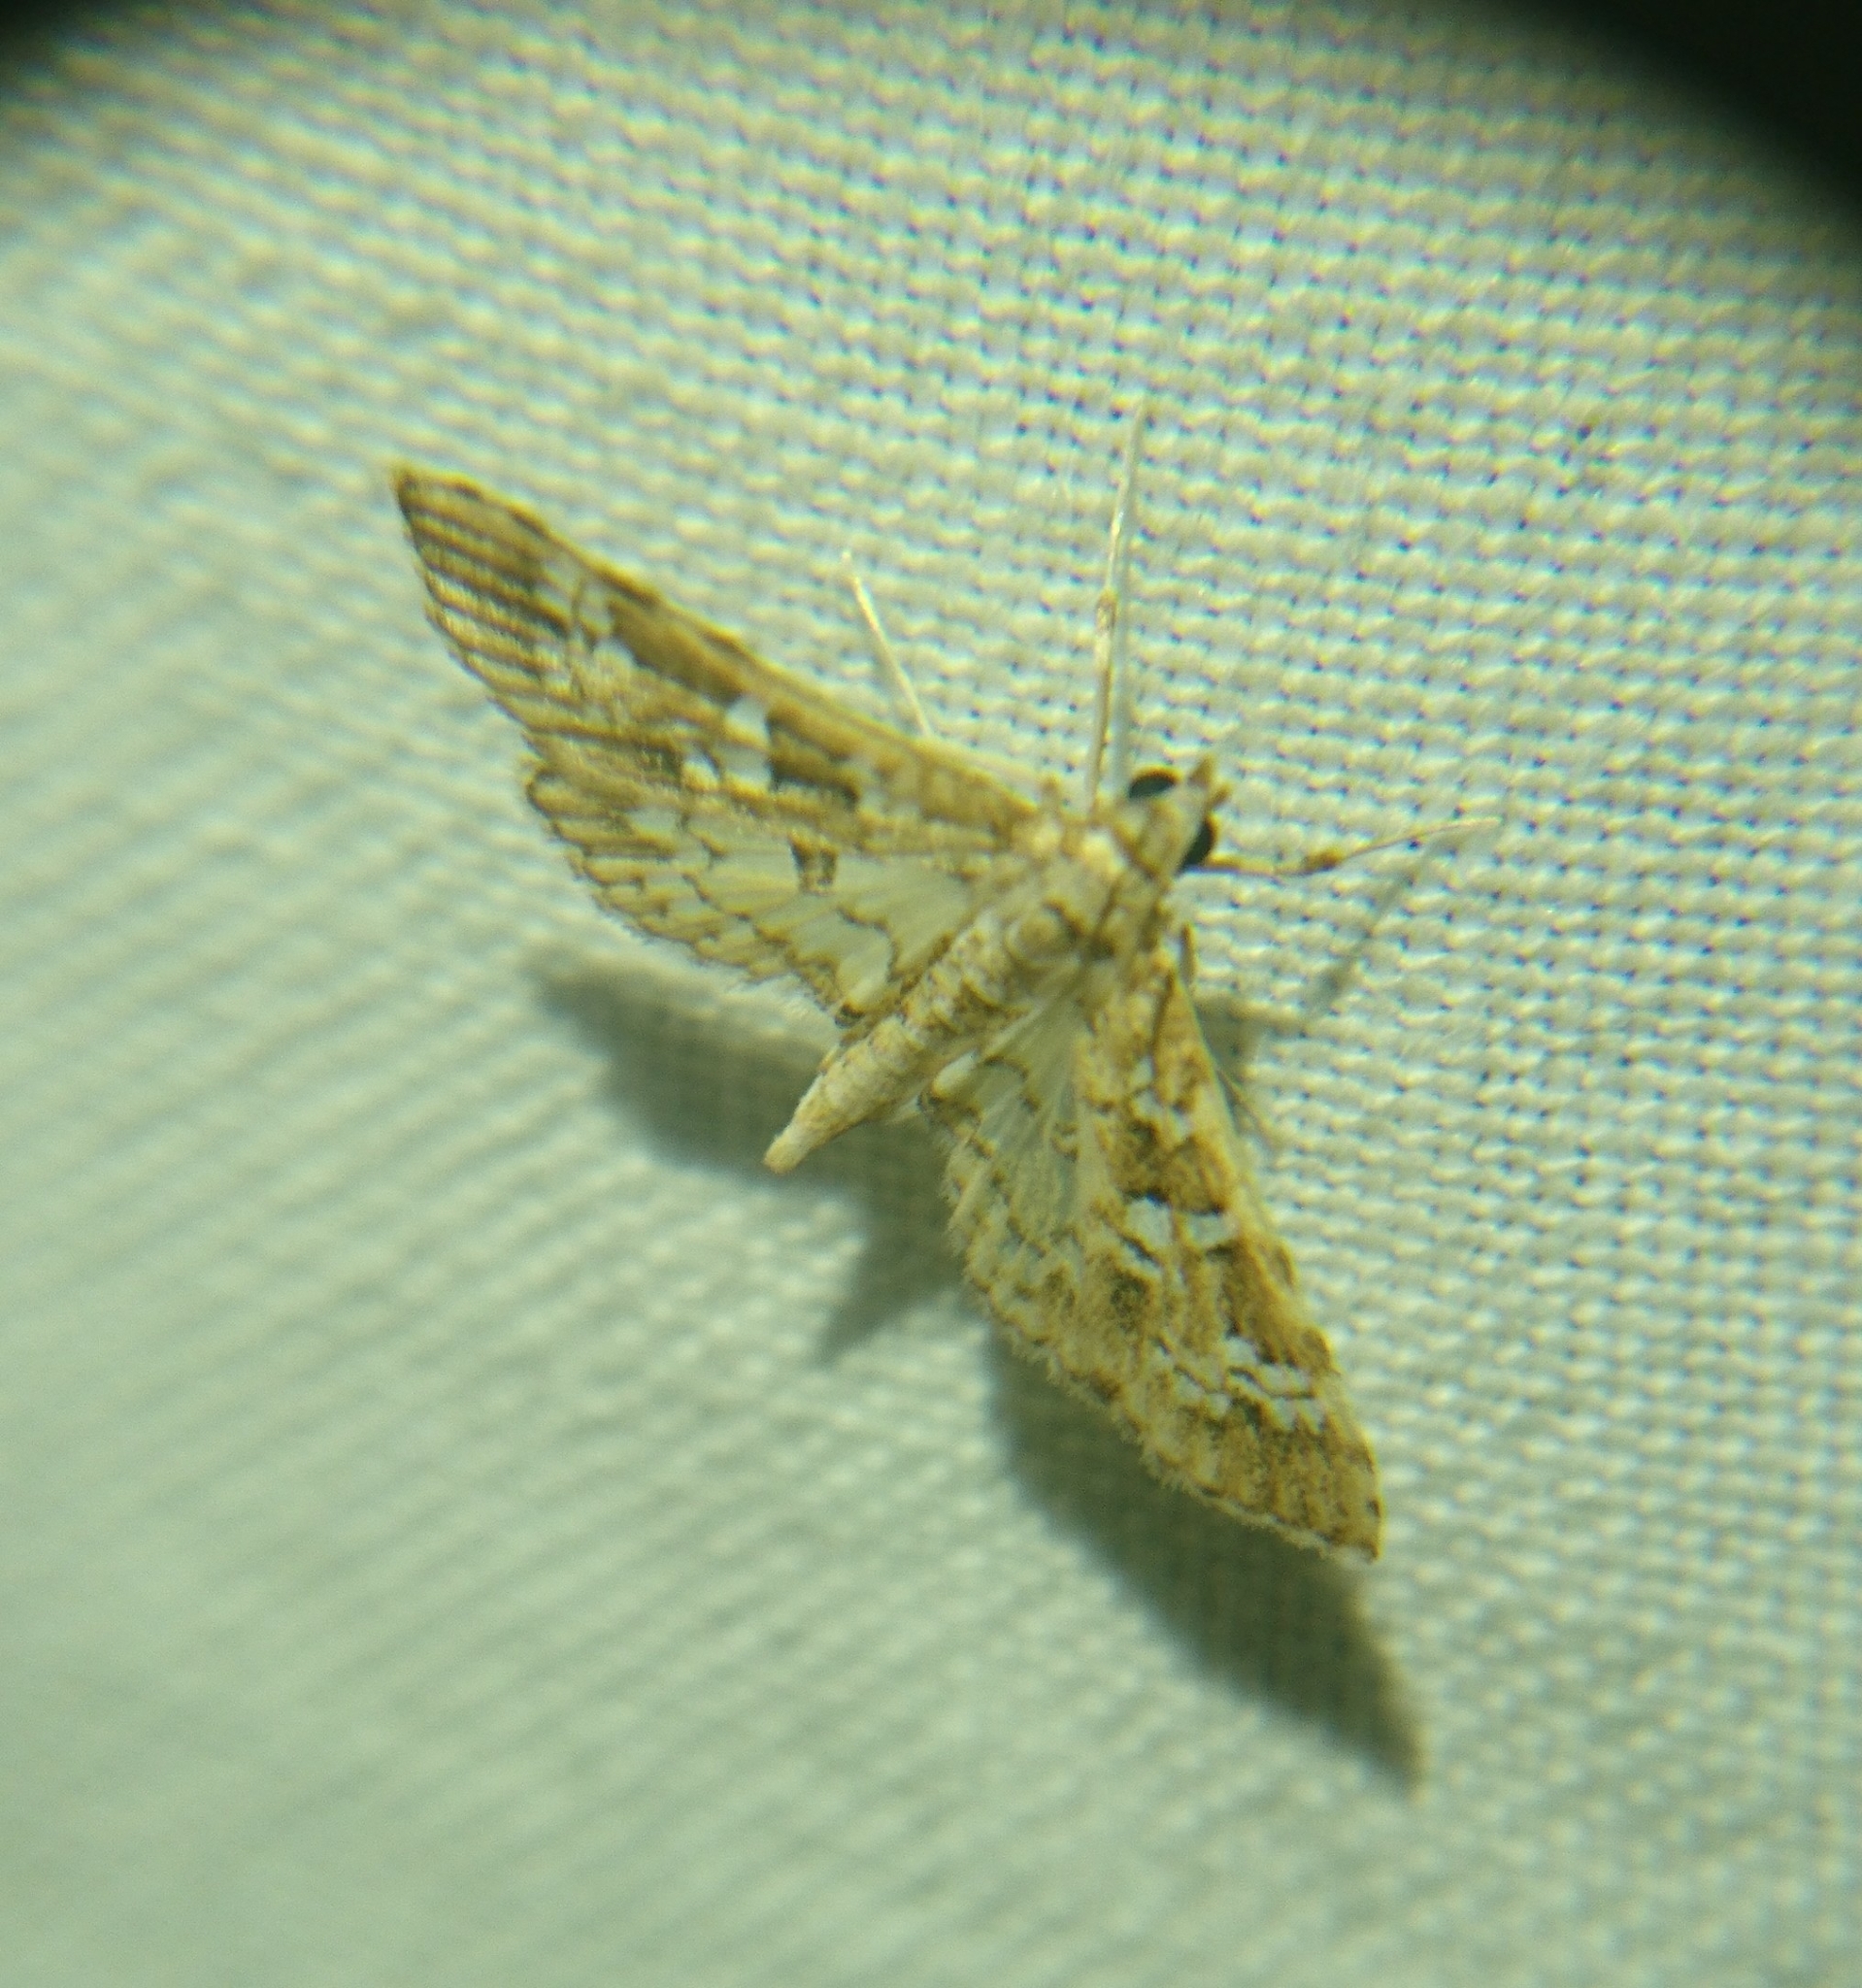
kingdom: Animalia
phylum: Arthropoda
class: Insecta
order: Lepidoptera
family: Crambidae
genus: Samea
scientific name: Samea multiplicalis
